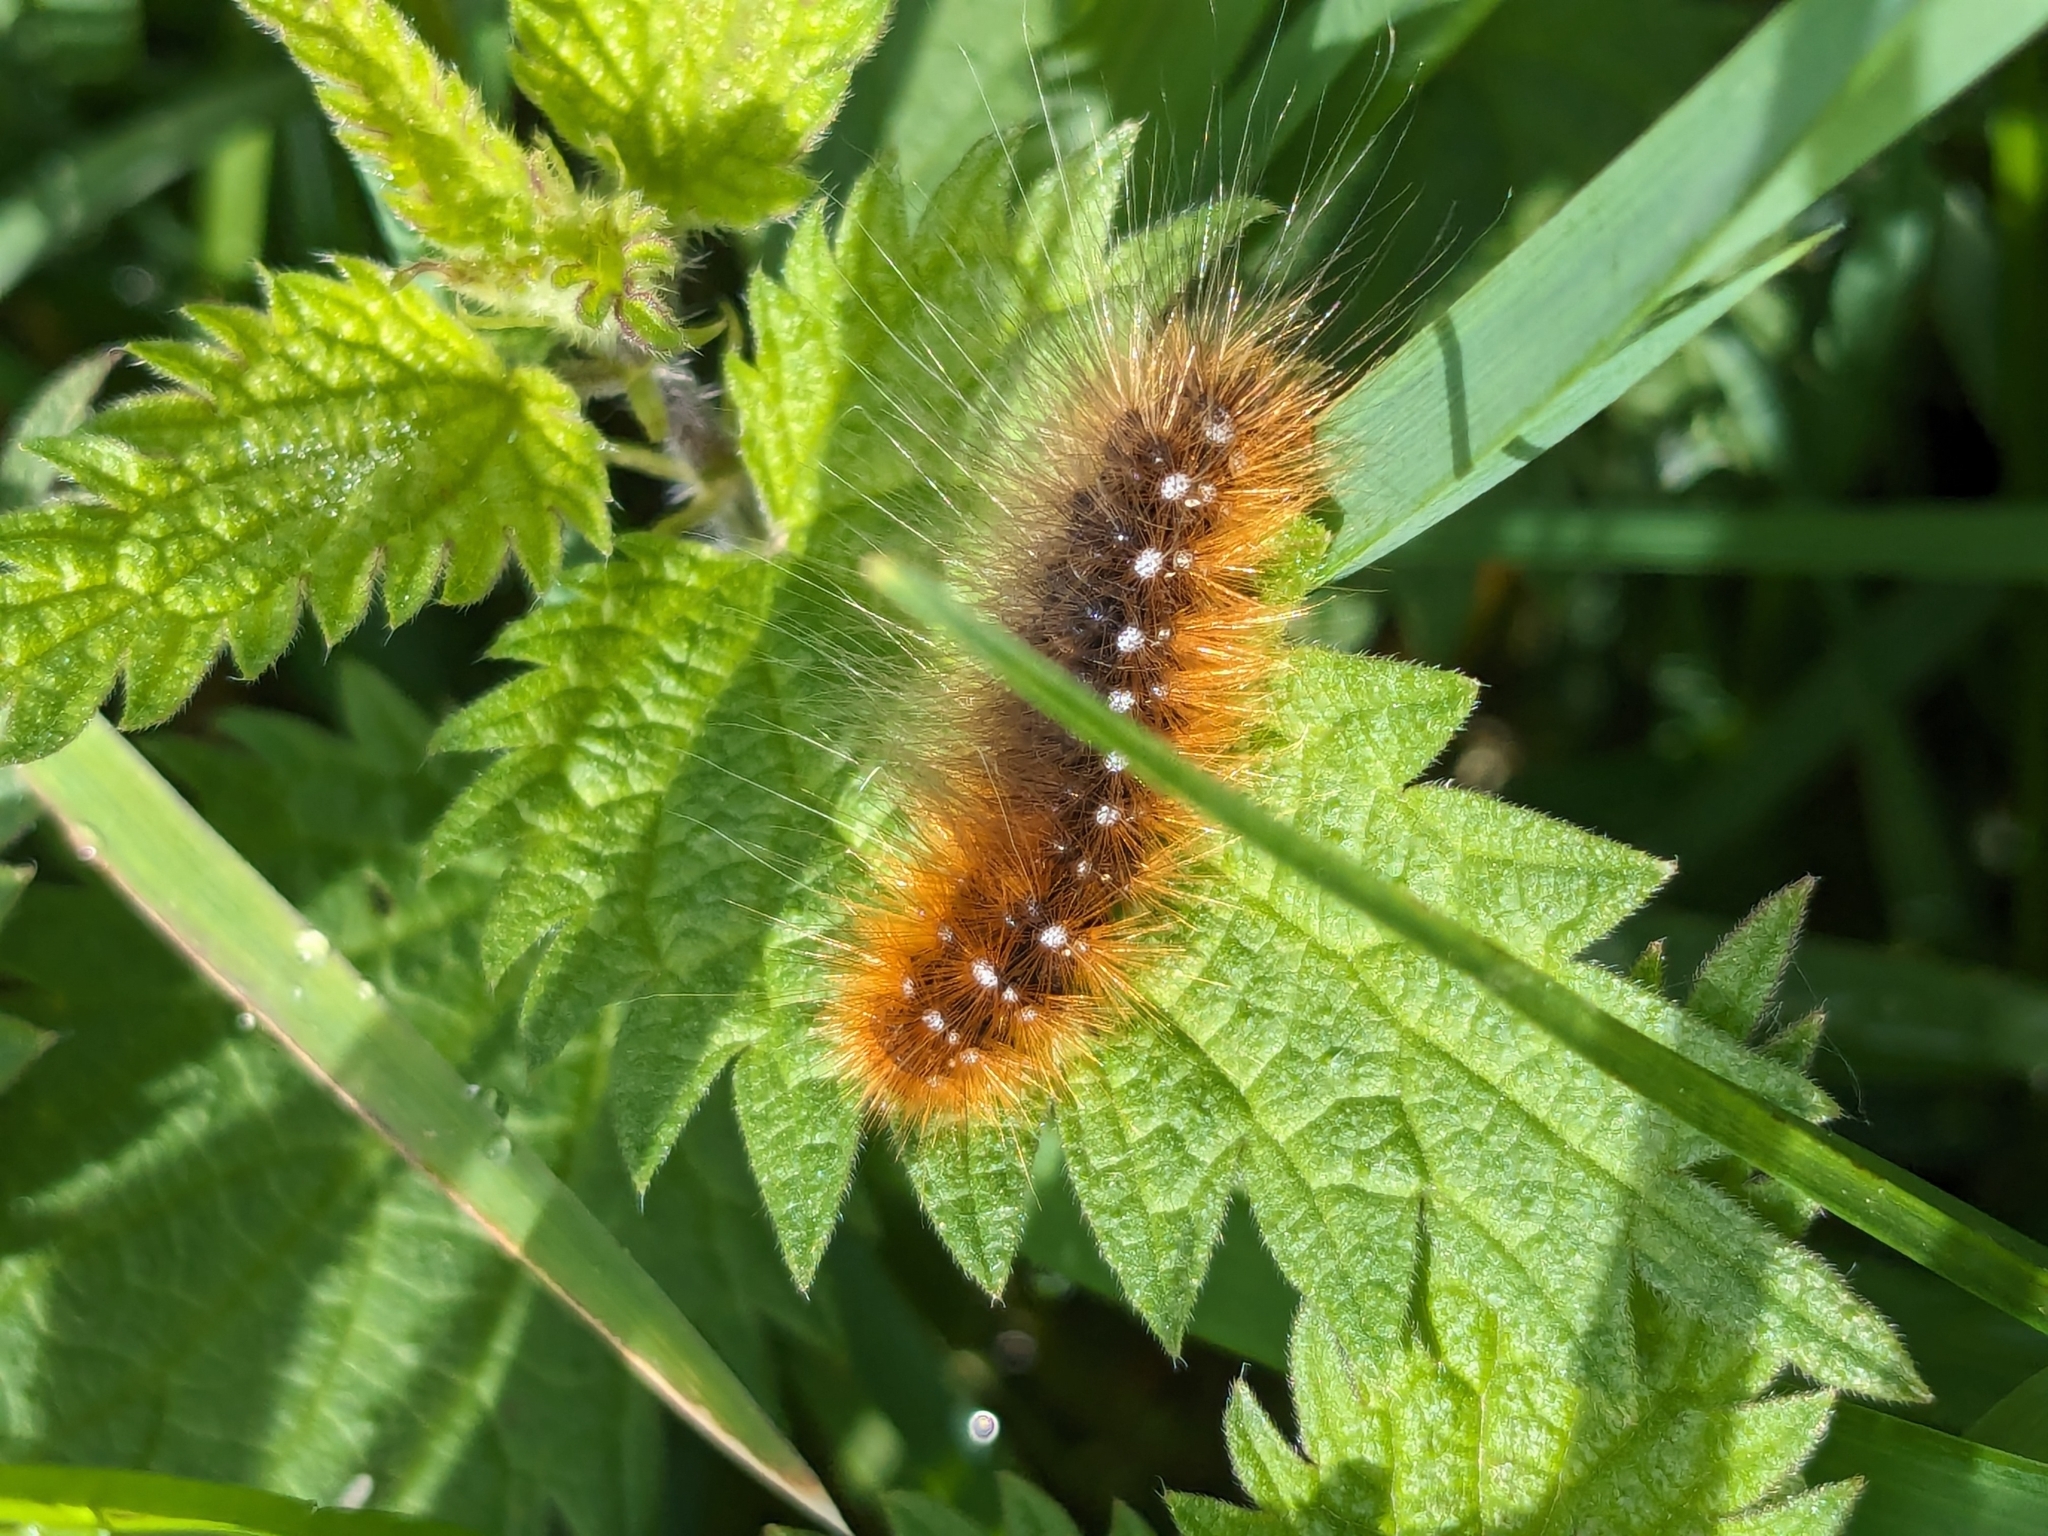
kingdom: Animalia
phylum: Arthropoda
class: Insecta
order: Lepidoptera
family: Erebidae
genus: Arctia
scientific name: Arctia caja
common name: Garden tiger
